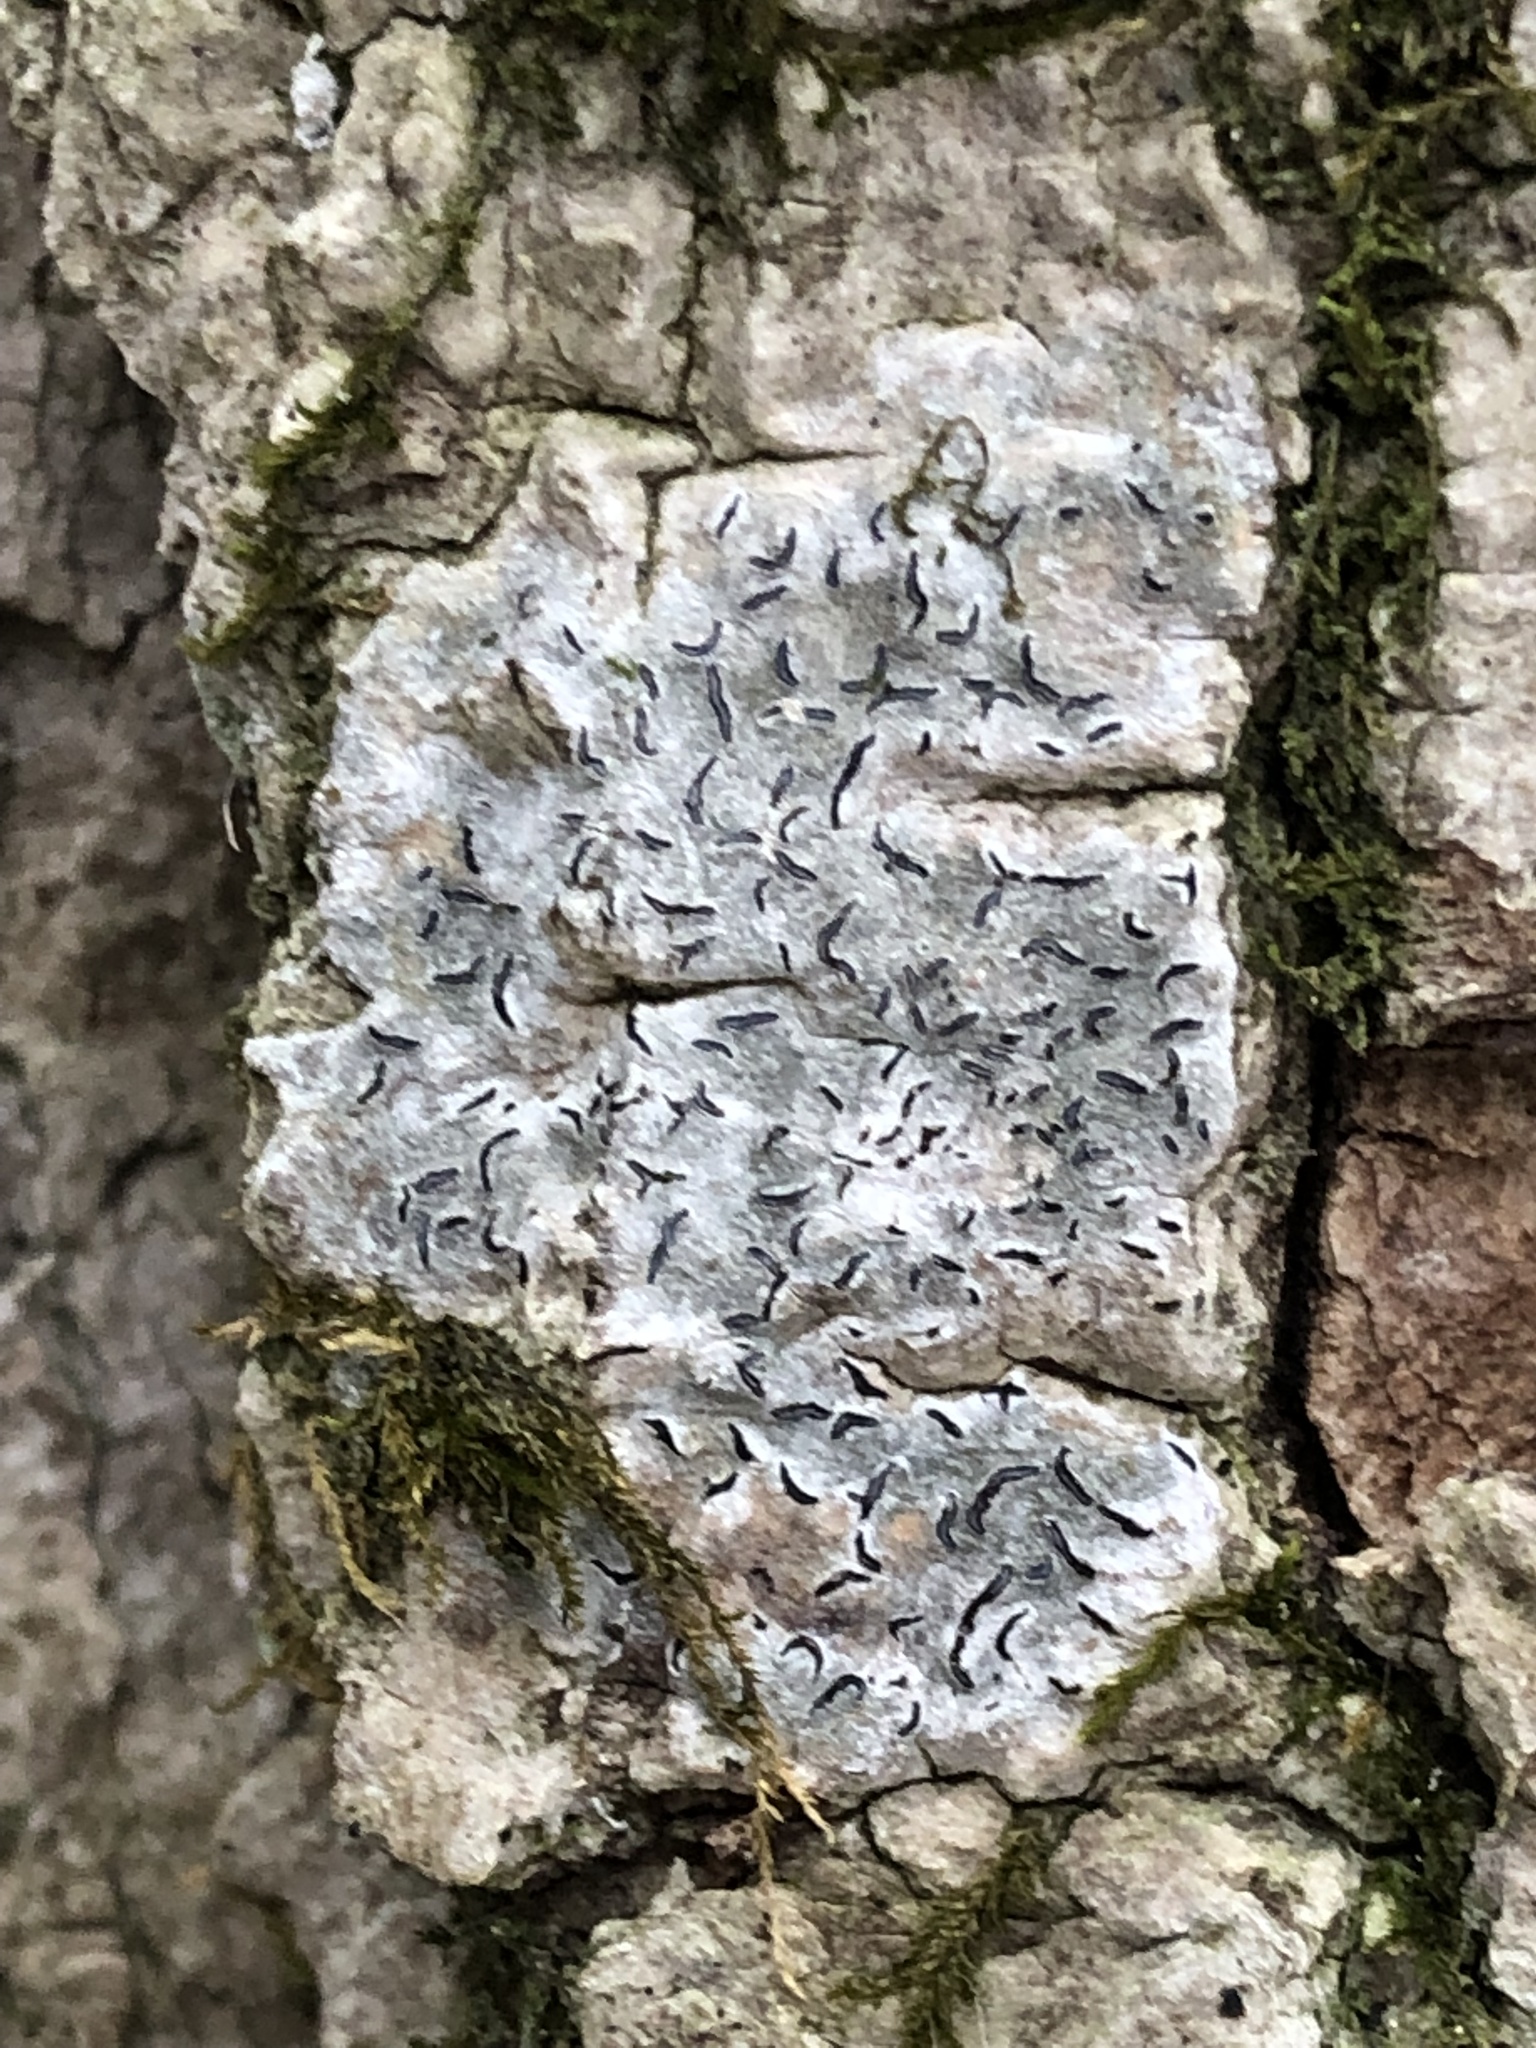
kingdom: Fungi
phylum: Ascomycota
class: Lecanoromycetes
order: Ostropales
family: Graphidaceae
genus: Graphis
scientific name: Graphis scripta
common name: Script lichen
